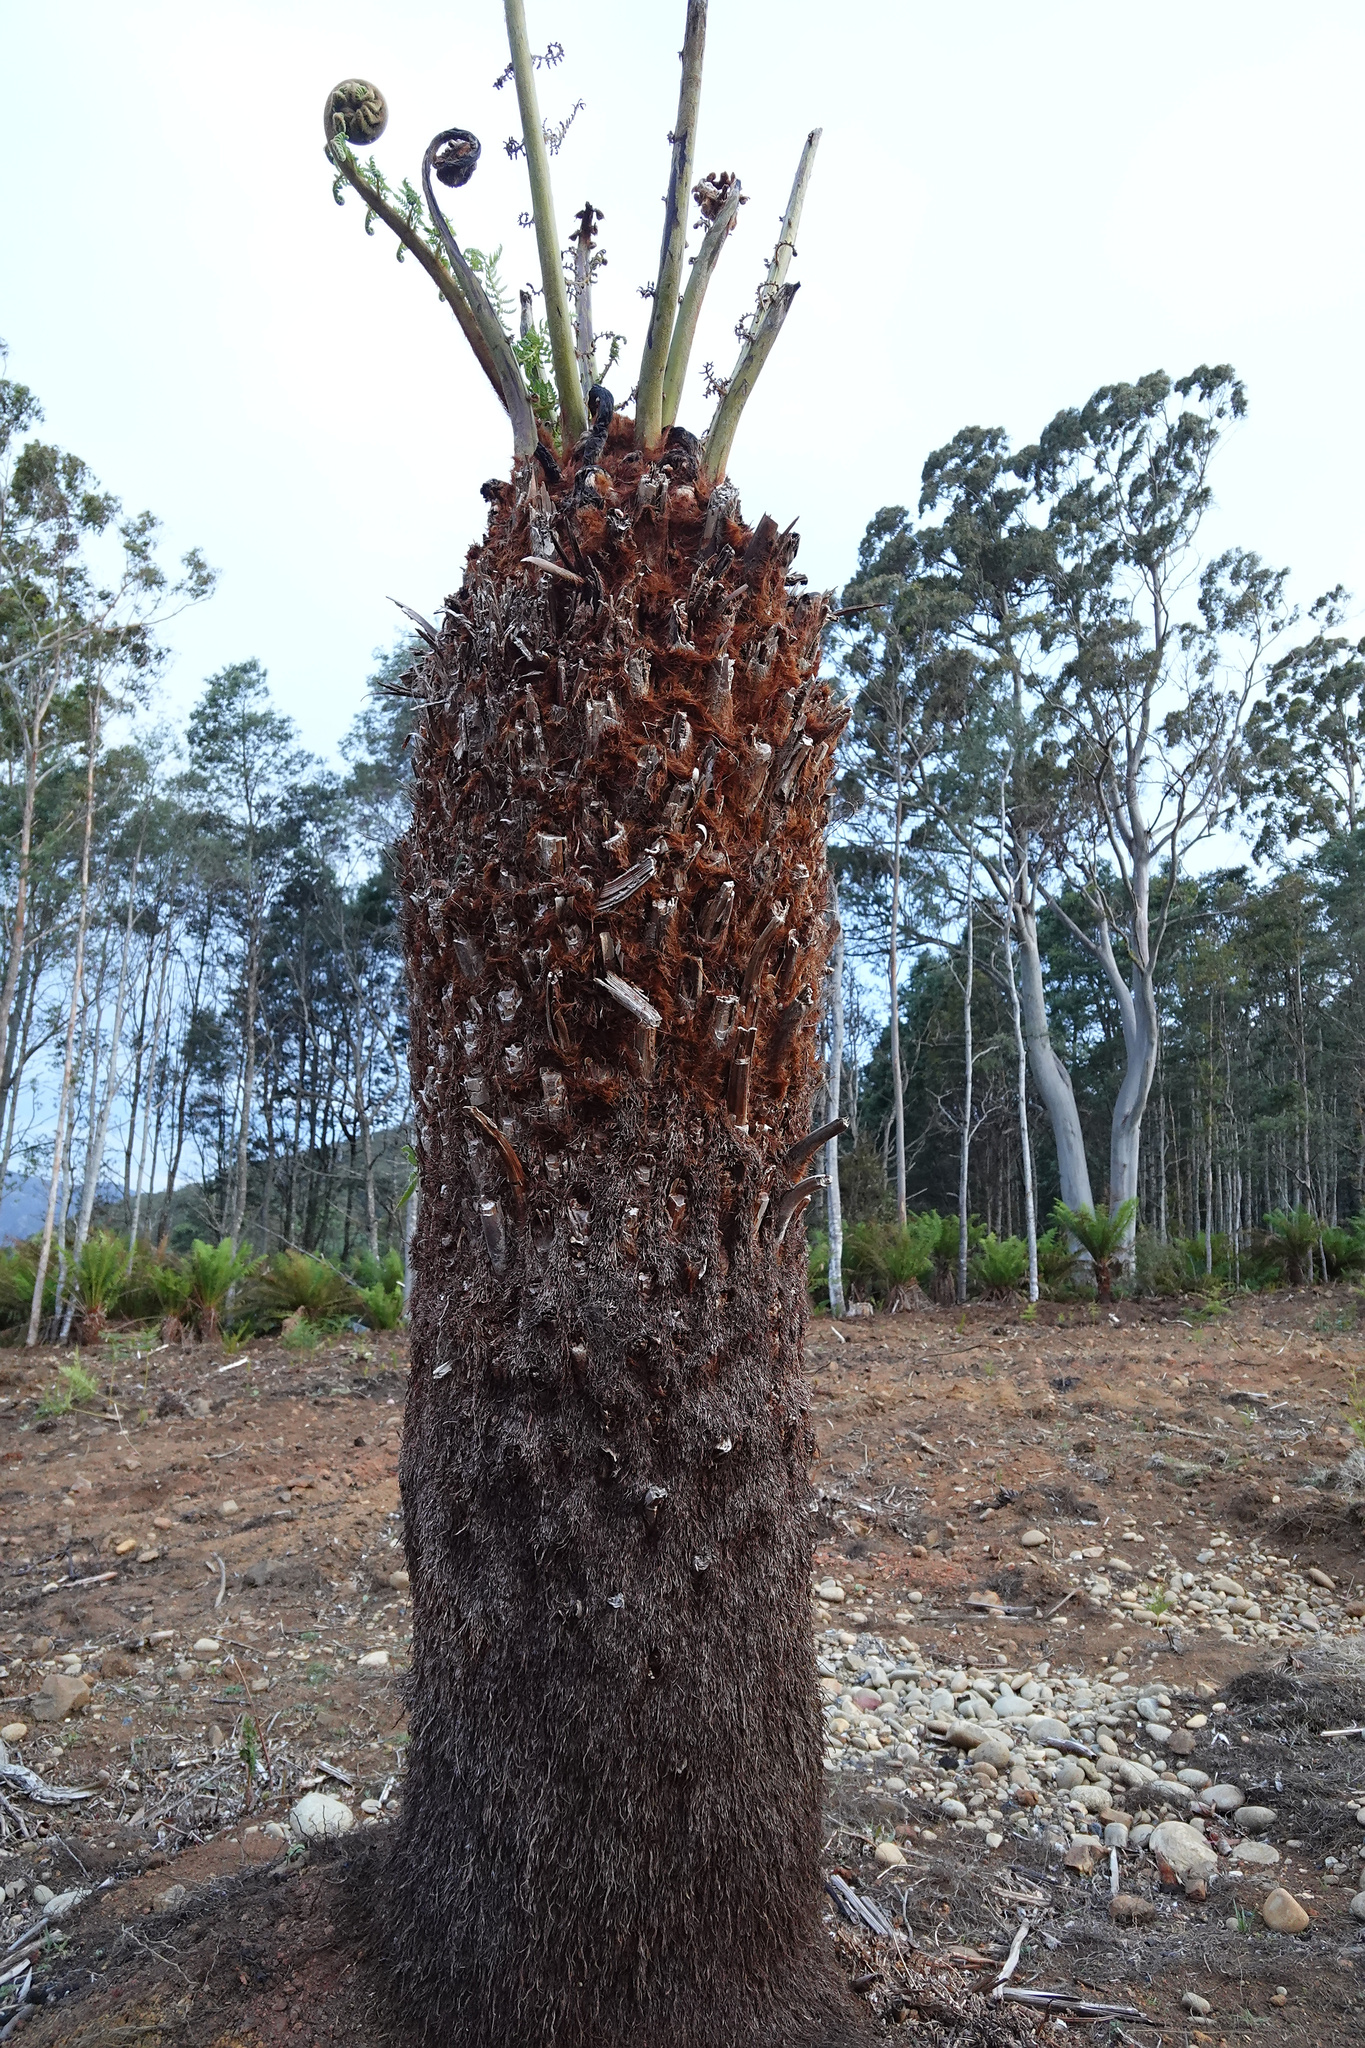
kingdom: Plantae
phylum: Tracheophyta
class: Polypodiopsida
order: Cyatheales
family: Dicksoniaceae
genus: Dicksonia
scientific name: Dicksonia antarctica
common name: Australian treefern
